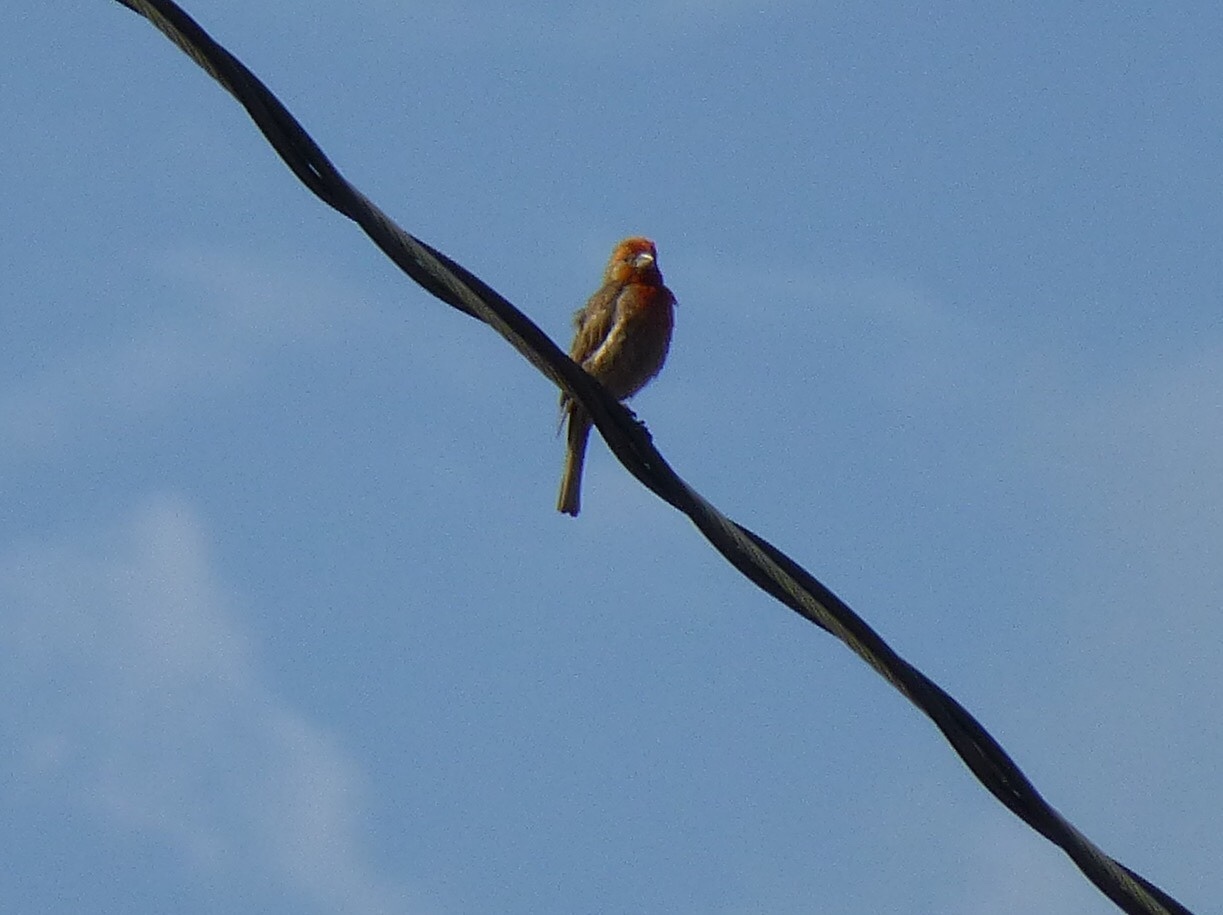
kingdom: Animalia
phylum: Chordata
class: Aves
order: Passeriformes
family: Fringillidae
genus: Haemorhous
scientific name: Haemorhous mexicanus
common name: House finch
